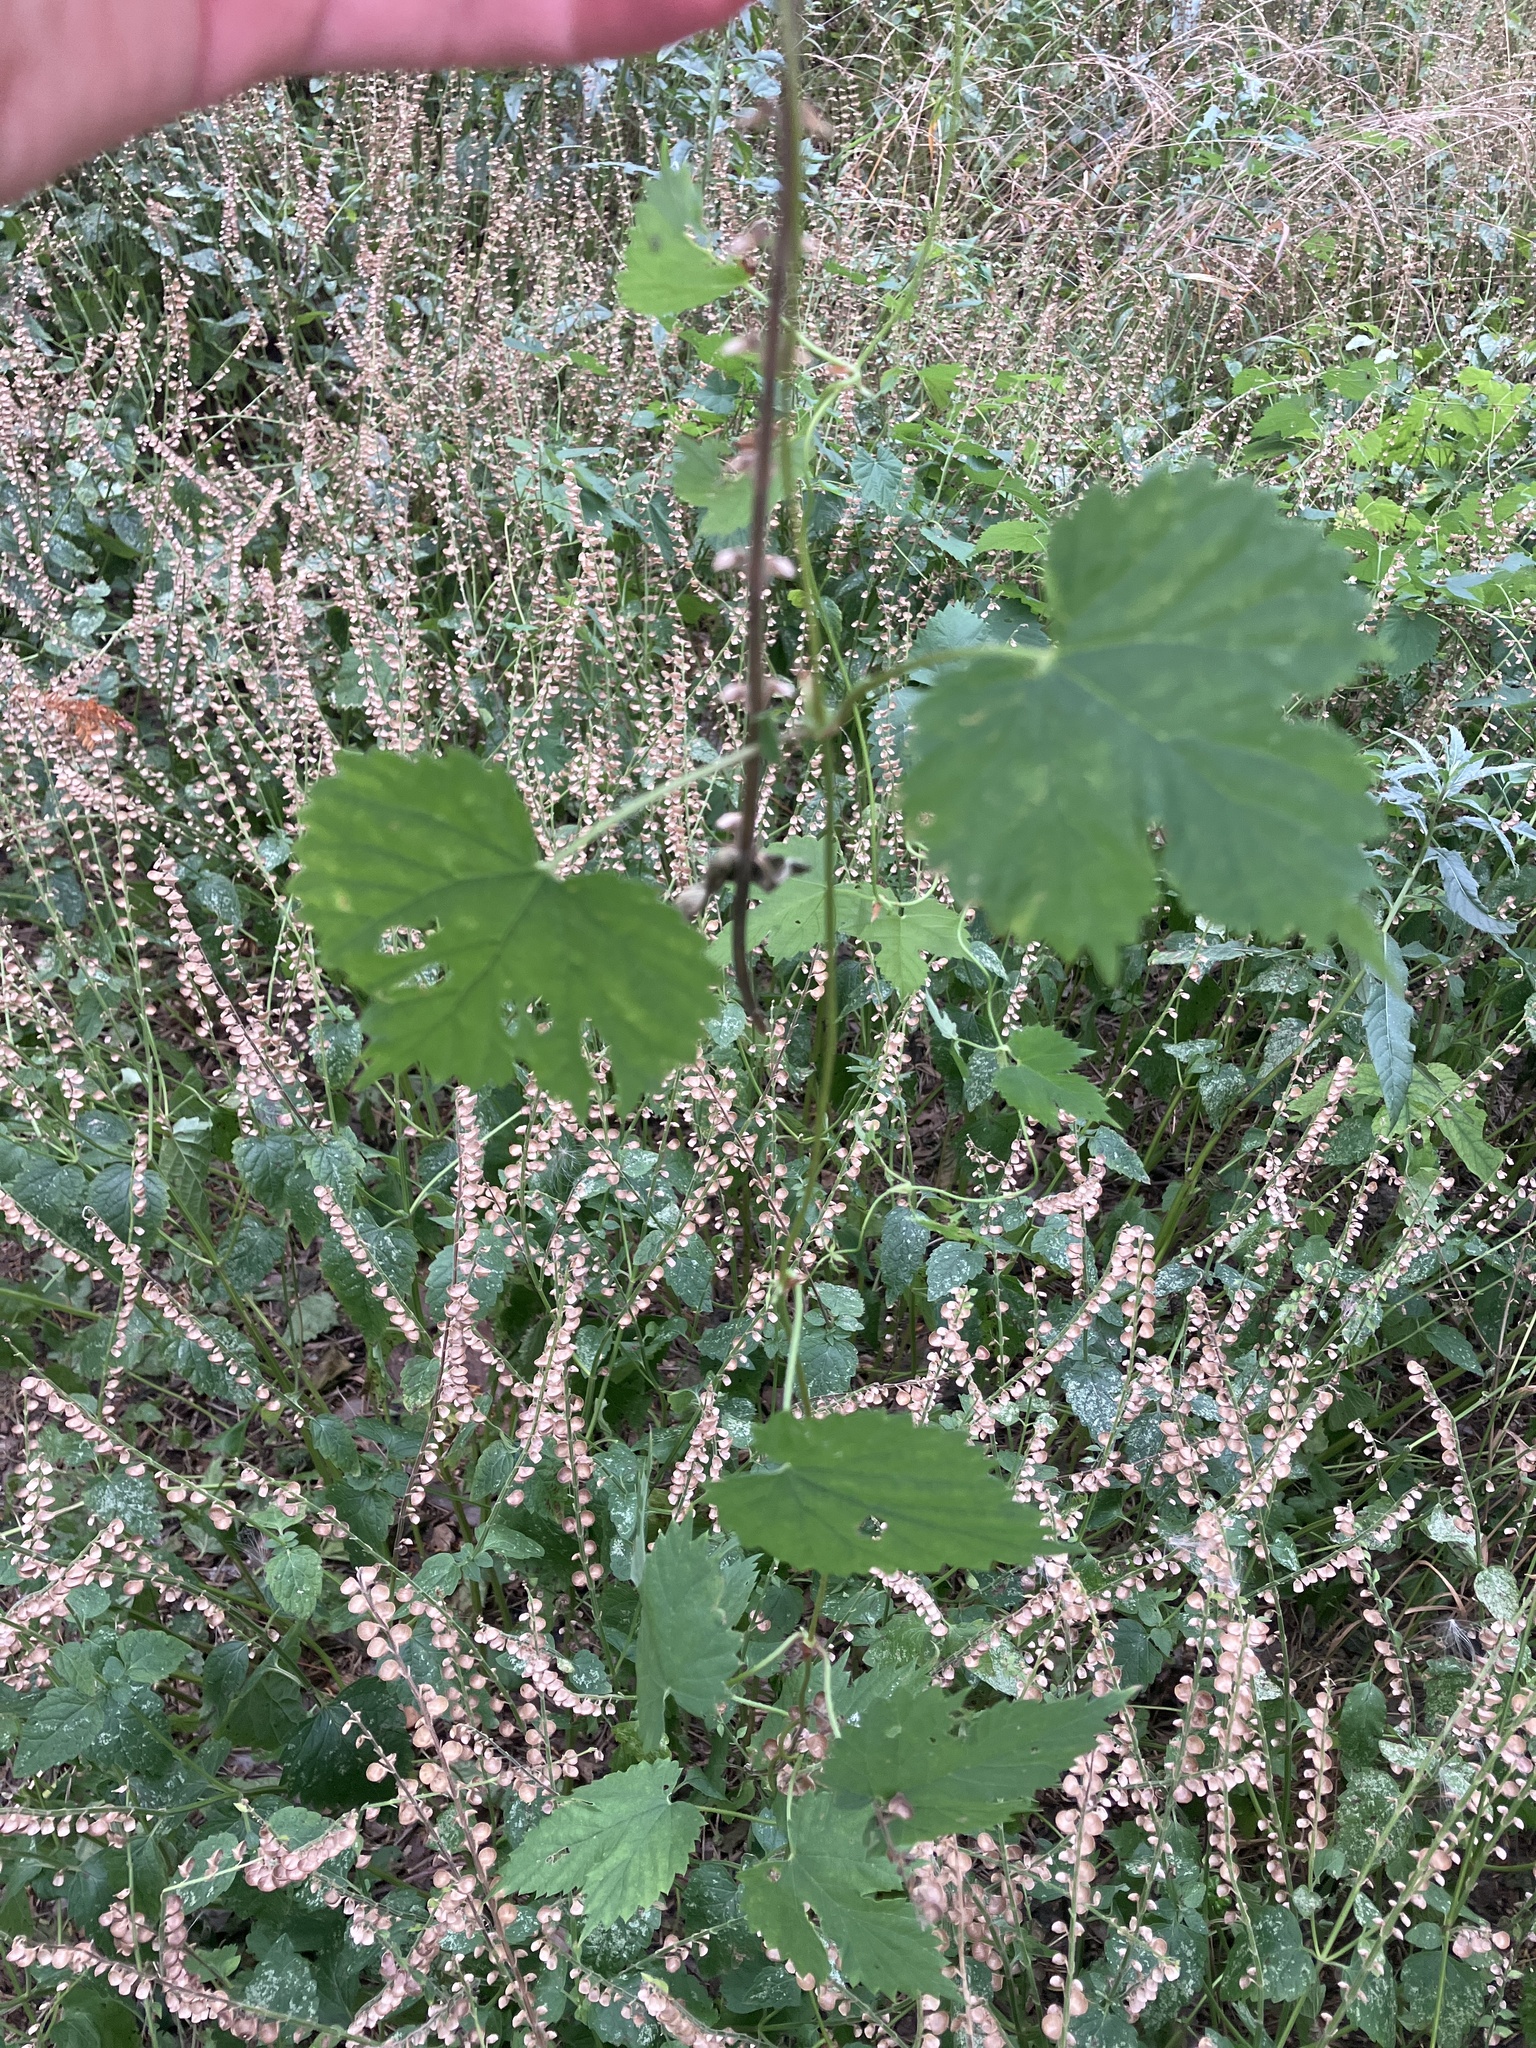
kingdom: Plantae
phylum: Tracheophyta
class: Magnoliopsida
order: Rosales
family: Cannabaceae
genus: Humulus
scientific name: Humulus lupulus
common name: Hop
